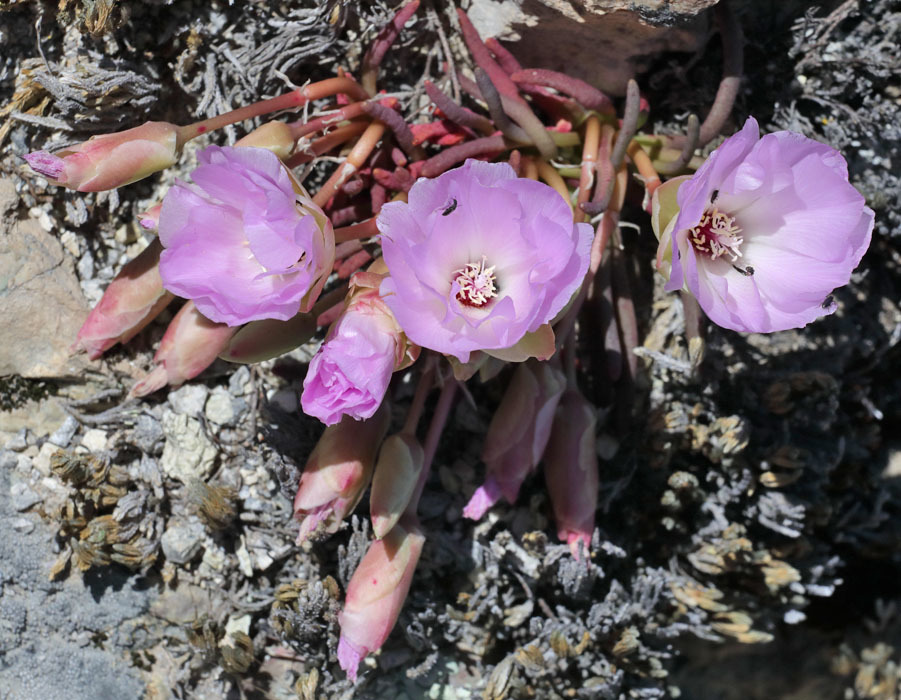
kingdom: Plantae
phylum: Tracheophyta
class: Magnoliopsida
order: Caryophyllales
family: Montiaceae
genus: Lewisia
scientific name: Lewisia rediviva
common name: Bitter-root
